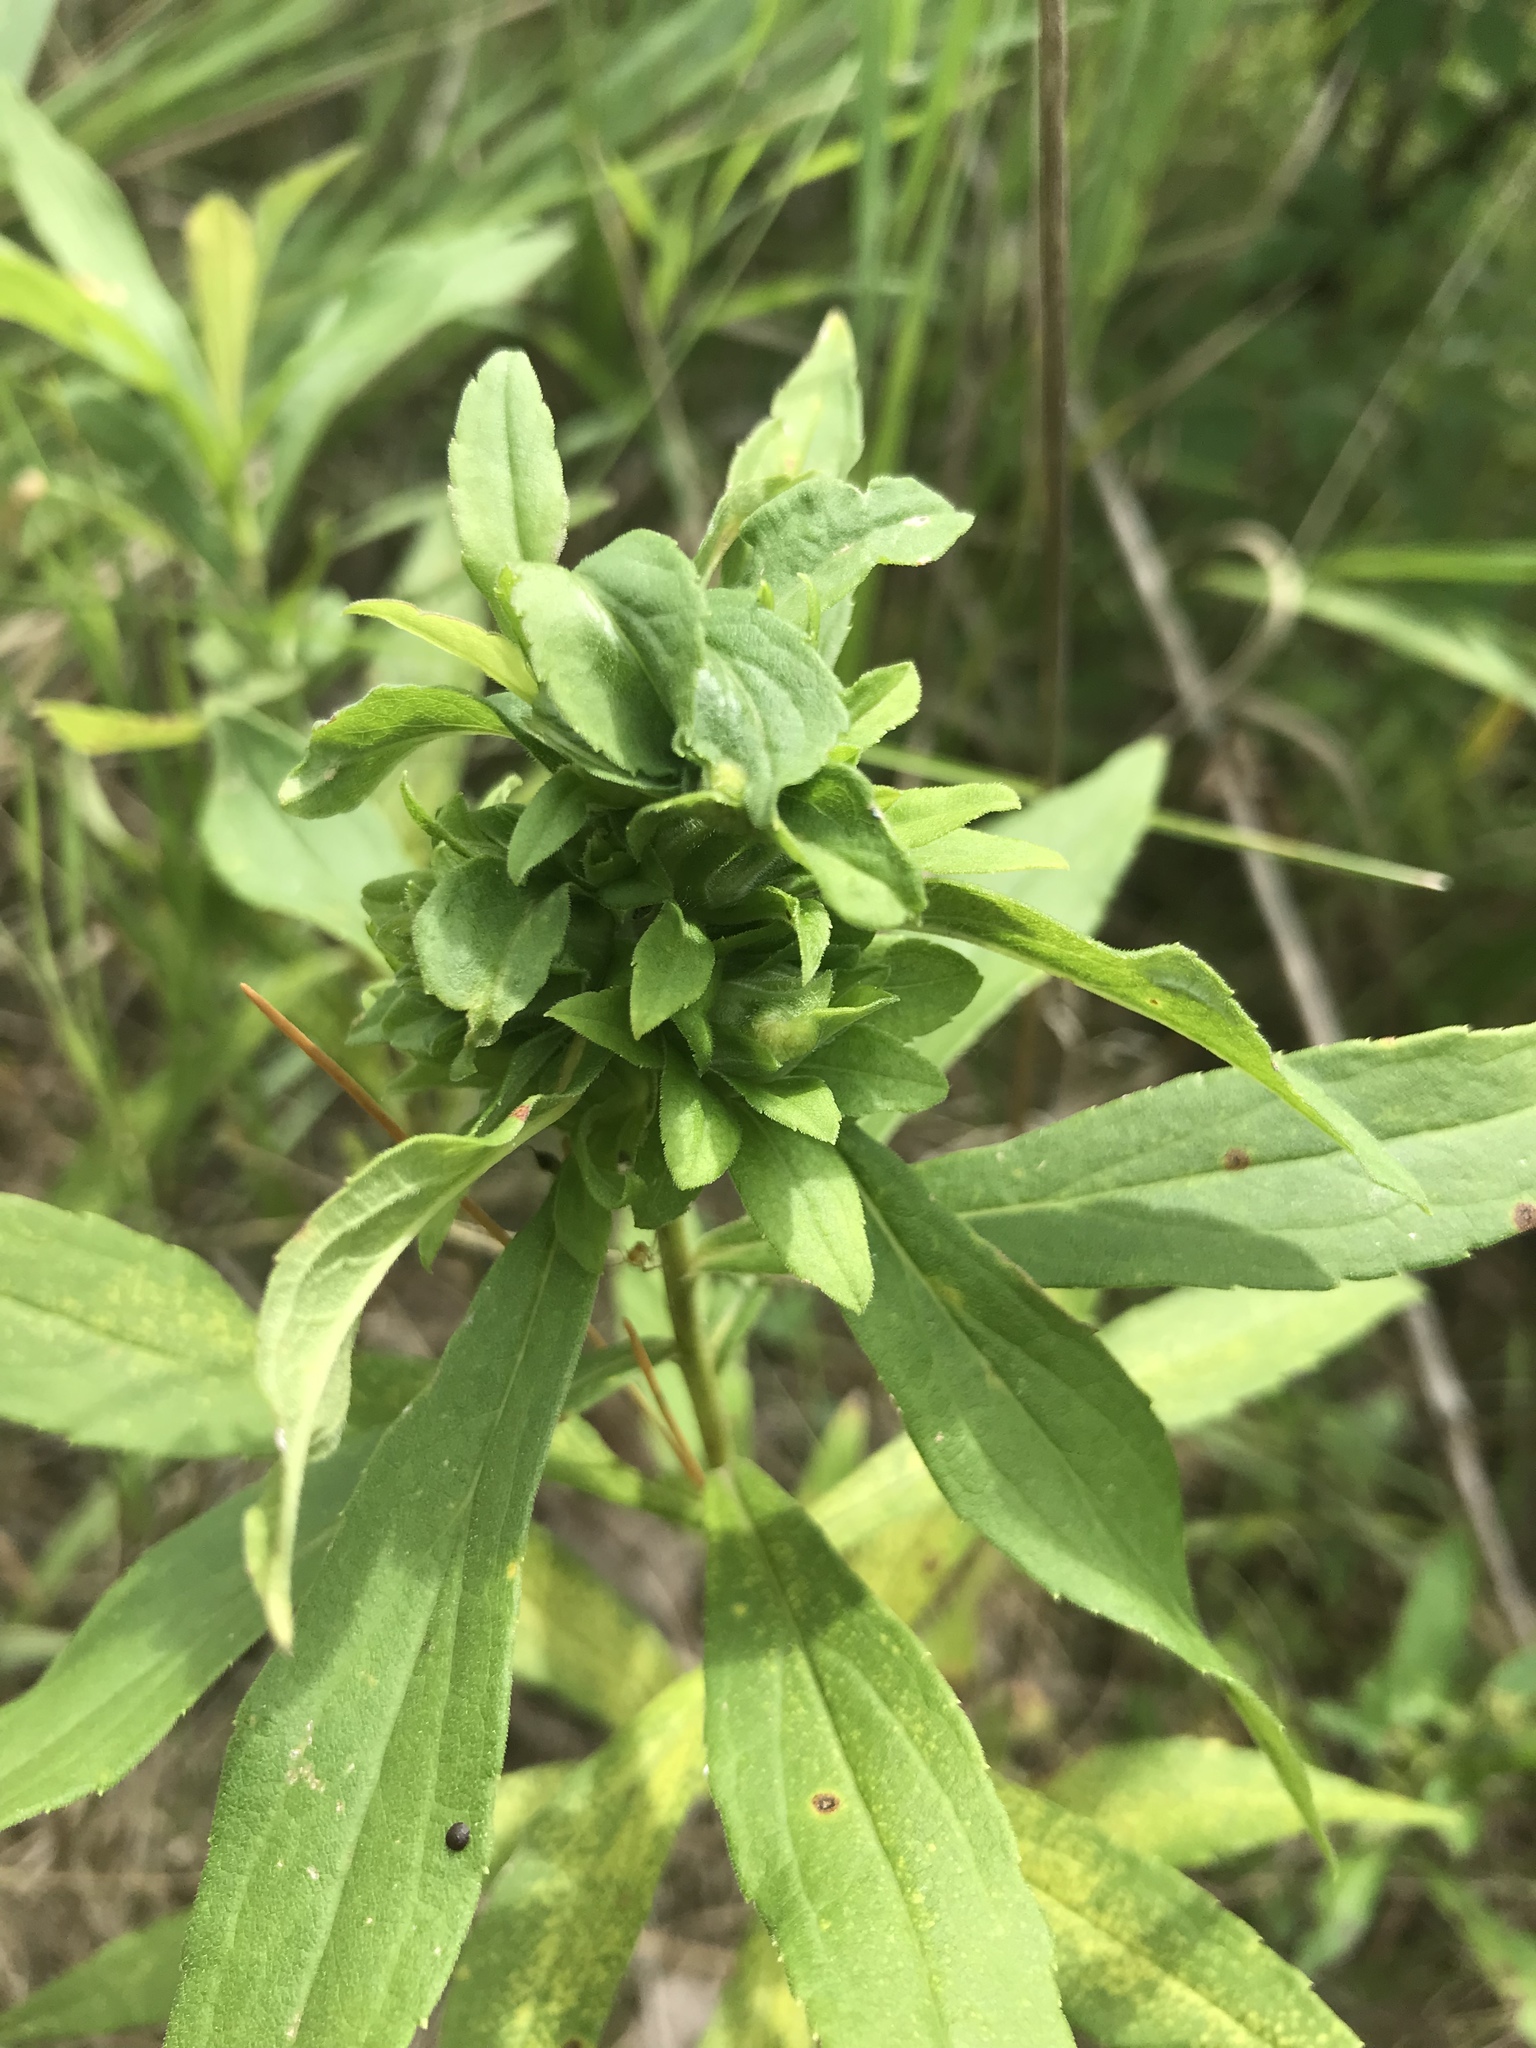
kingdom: Animalia
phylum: Arthropoda
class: Insecta
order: Diptera
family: Cecidomyiidae
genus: Asphondylia
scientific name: Asphondylia solidaginis
